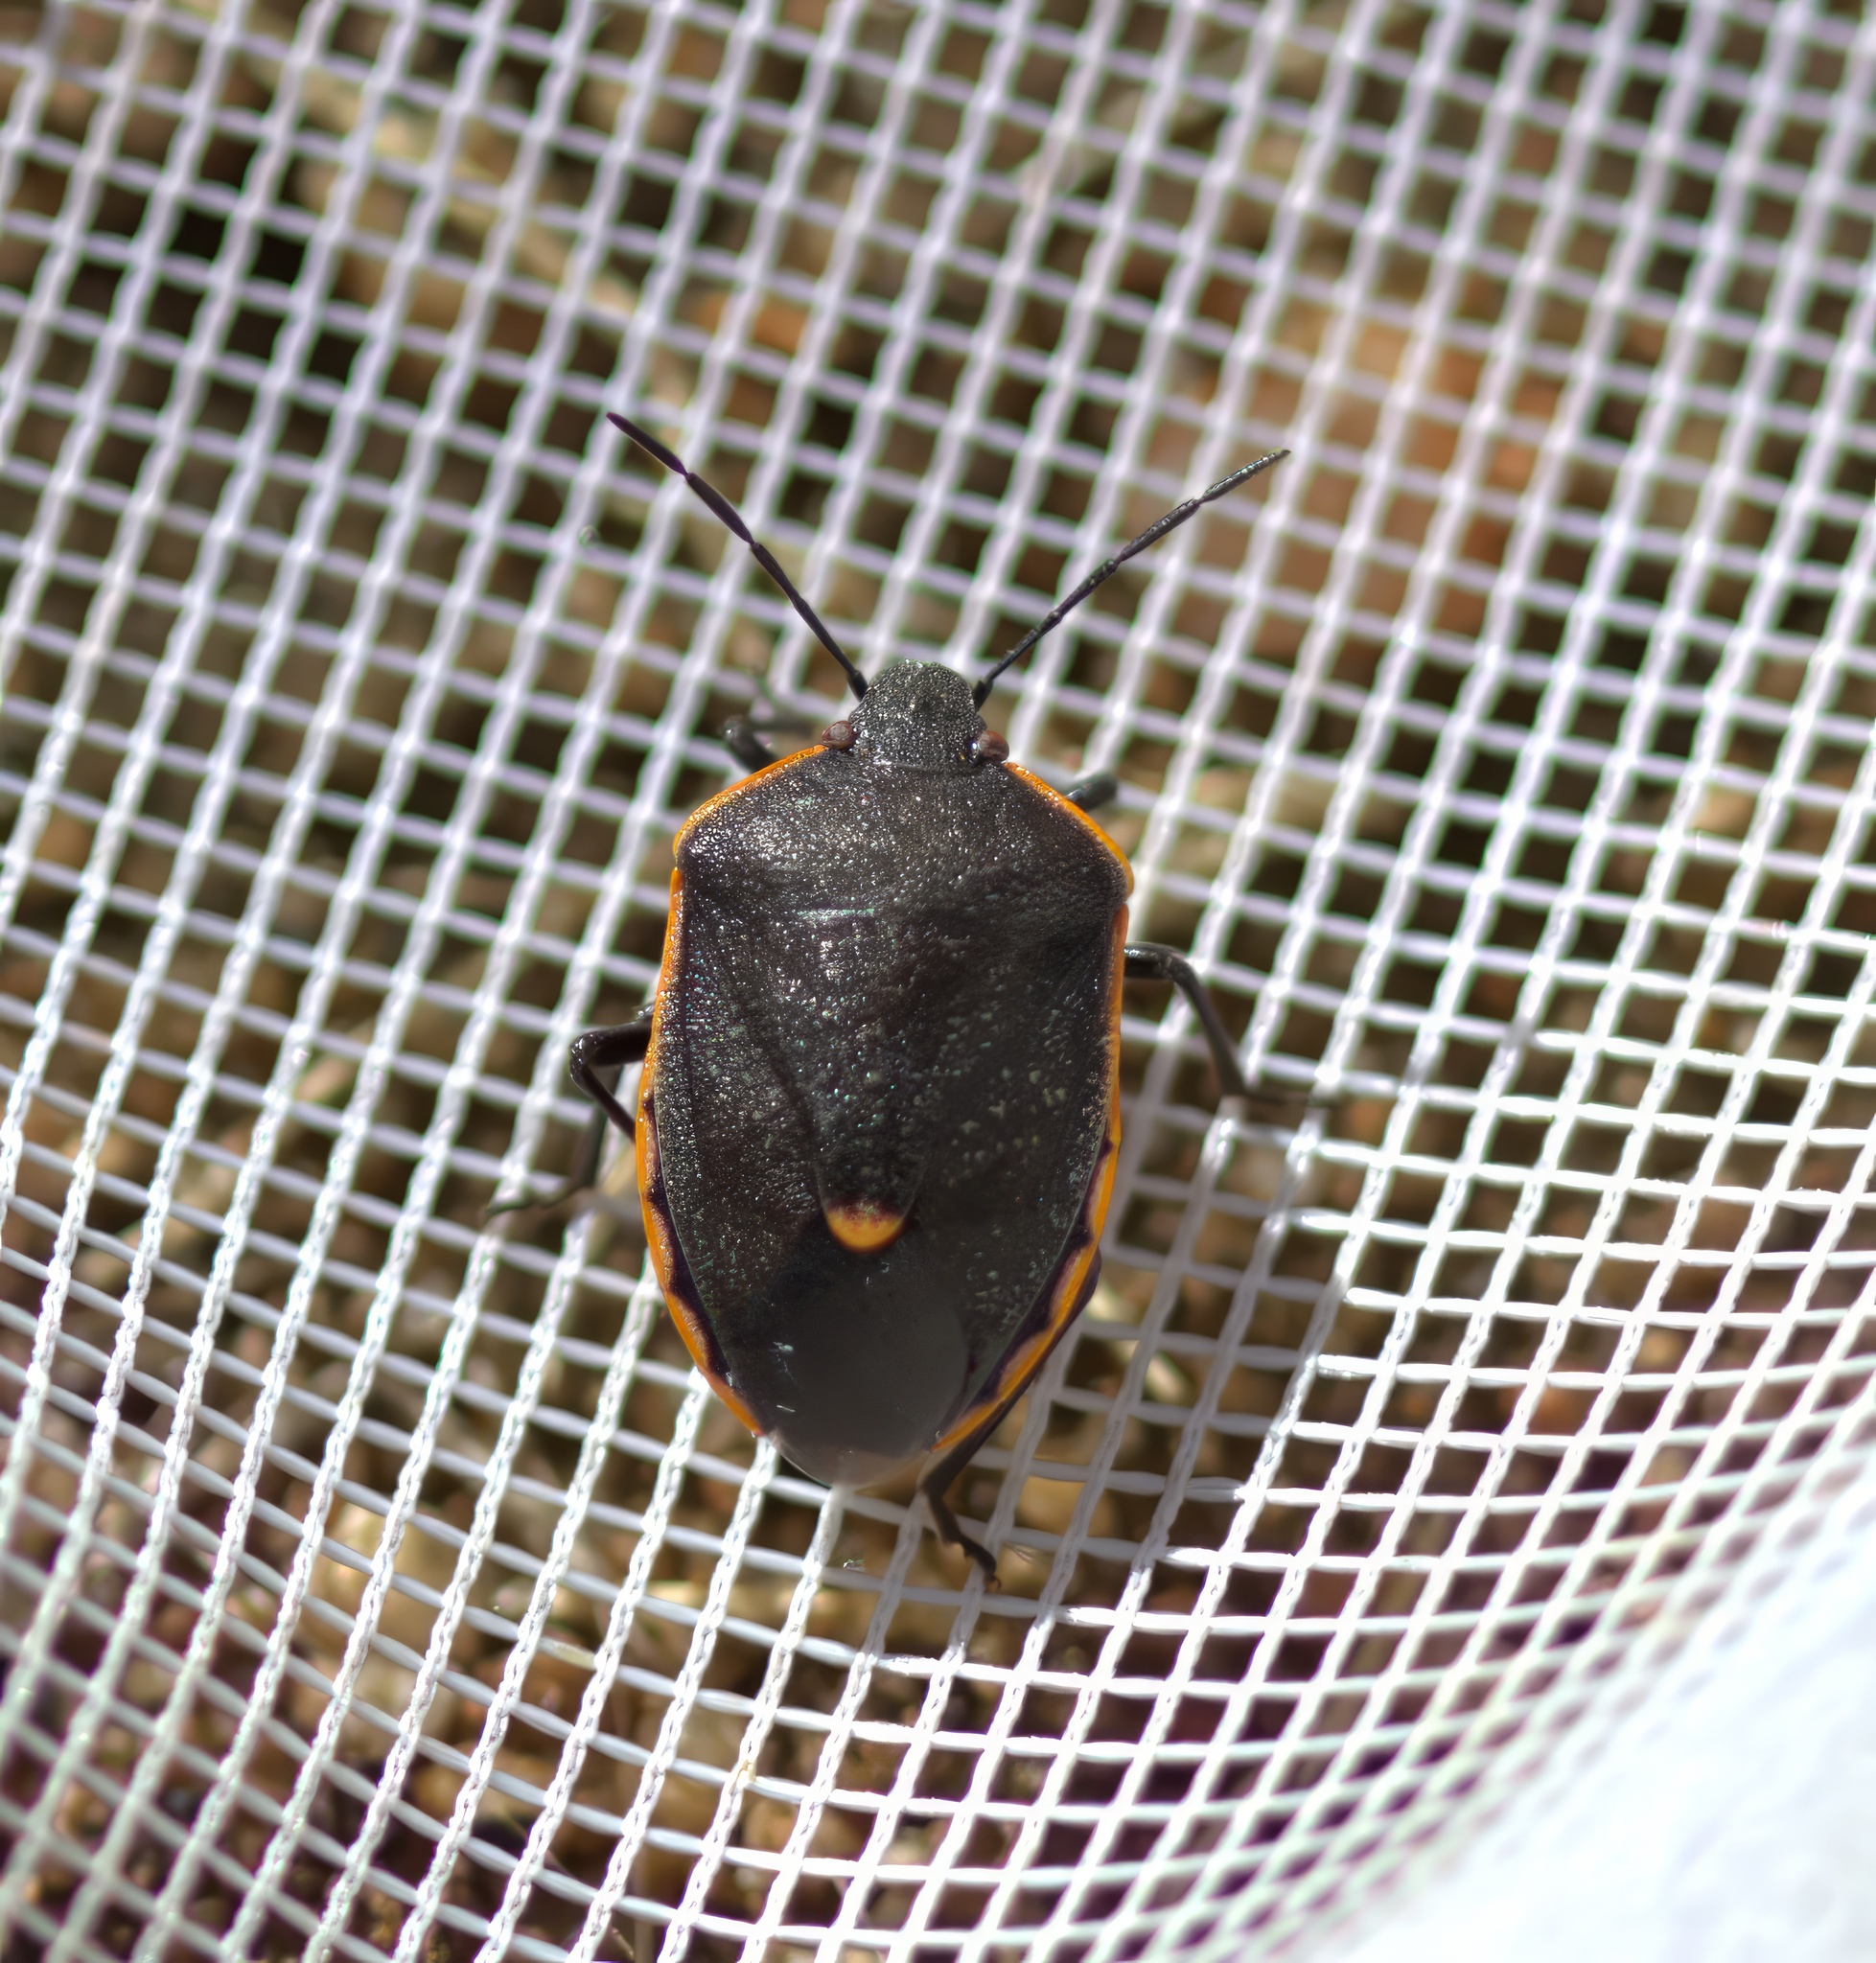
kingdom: Animalia
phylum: Arthropoda
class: Insecta
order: Hemiptera
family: Pentatomidae
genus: Chlorochroa
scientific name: Chlorochroa ligata
